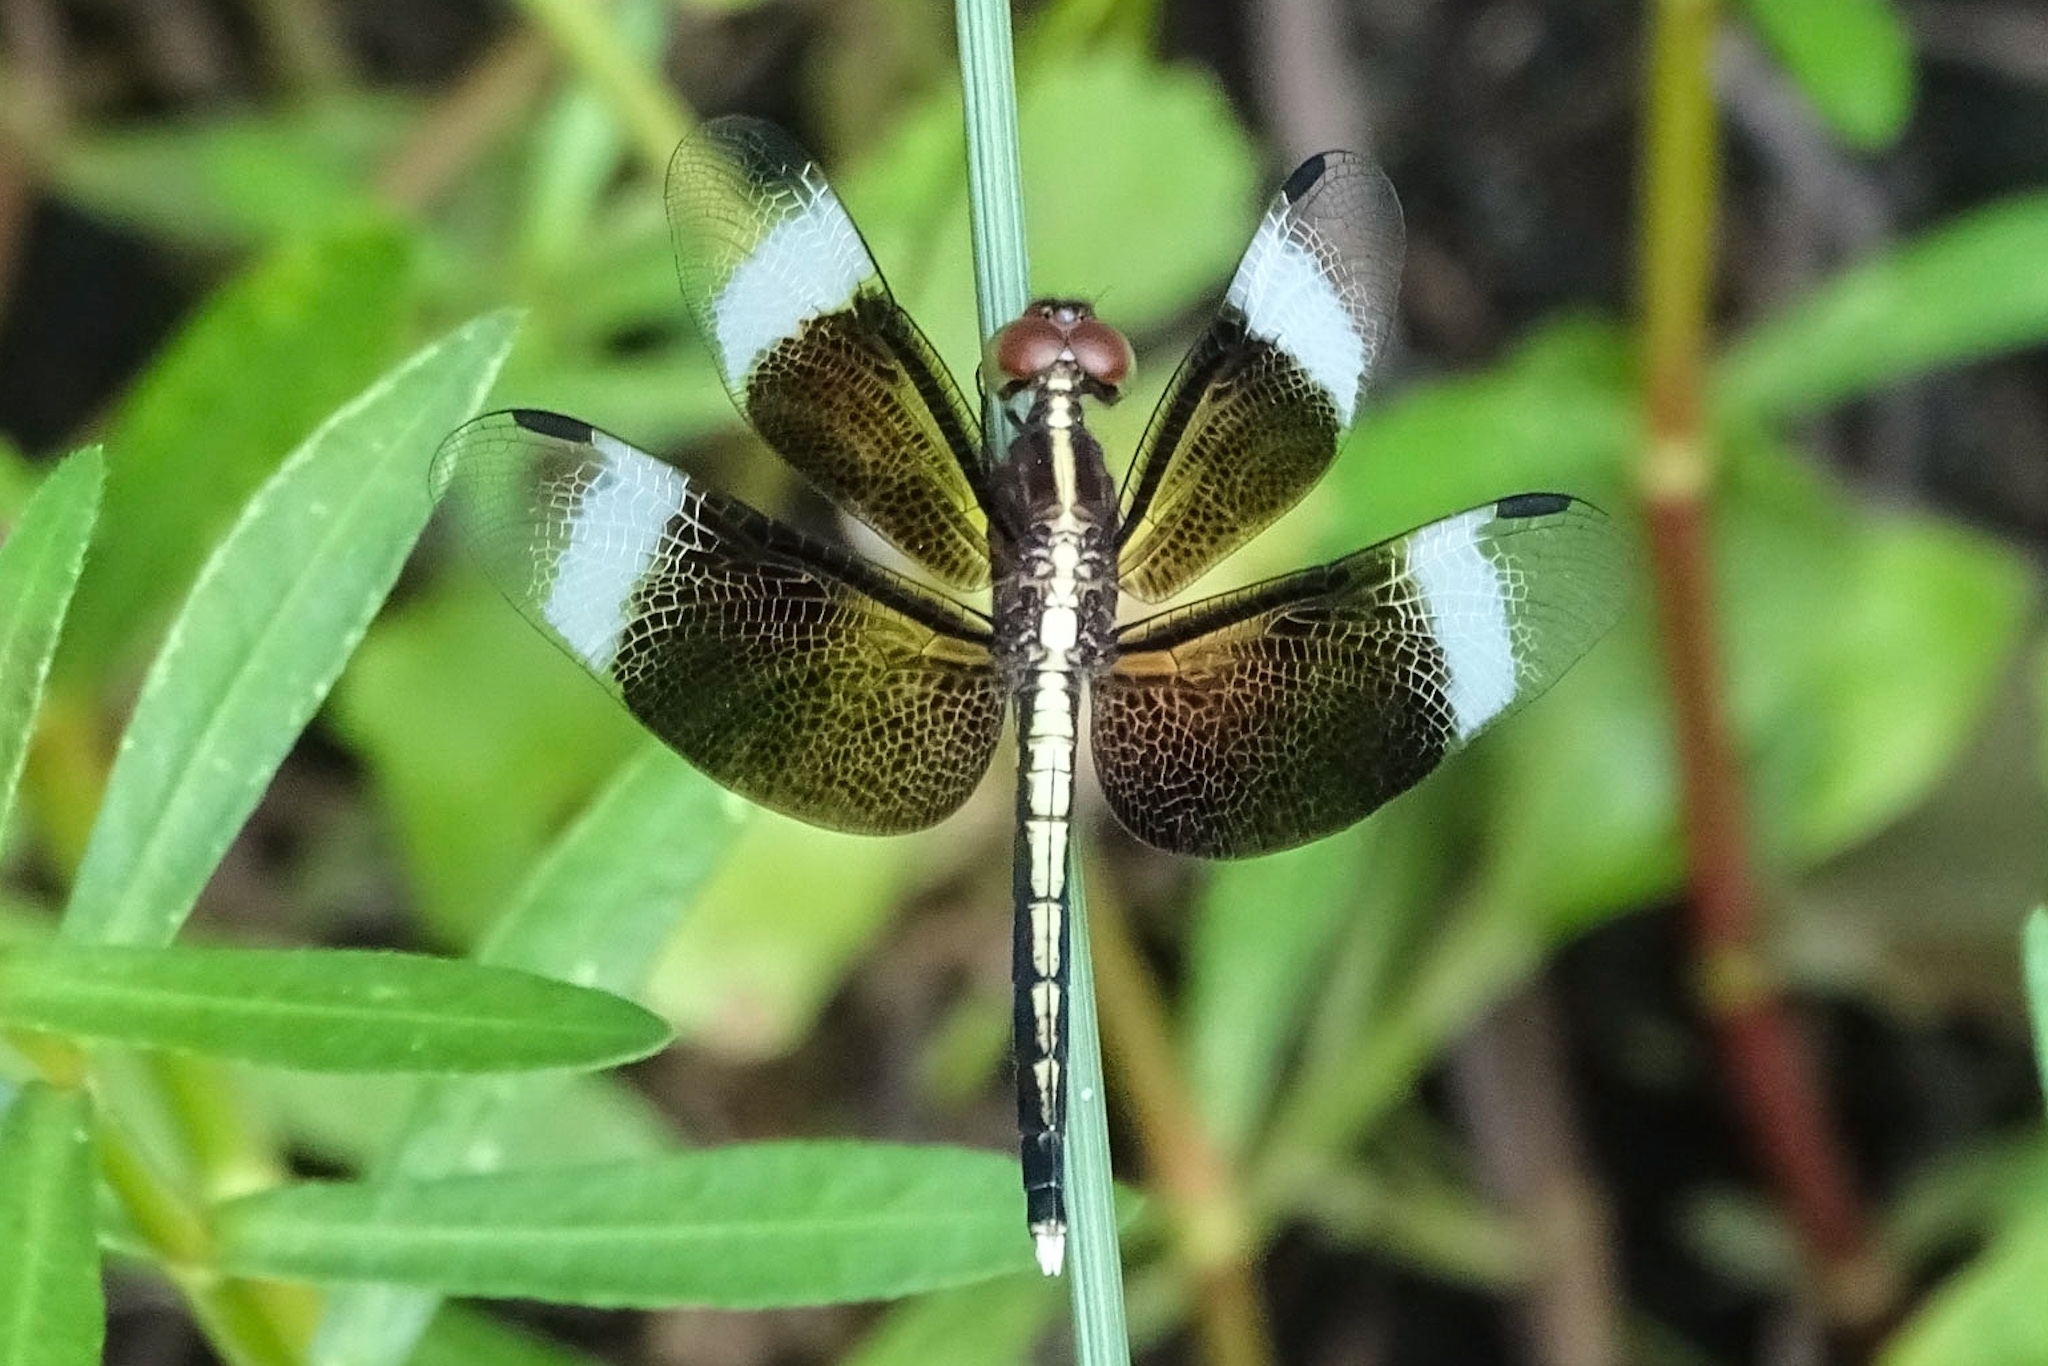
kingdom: Animalia
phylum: Arthropoda
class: Insecta
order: Odonata
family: Libellulidae
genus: Neurothemis
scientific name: Neurothemis tullia
